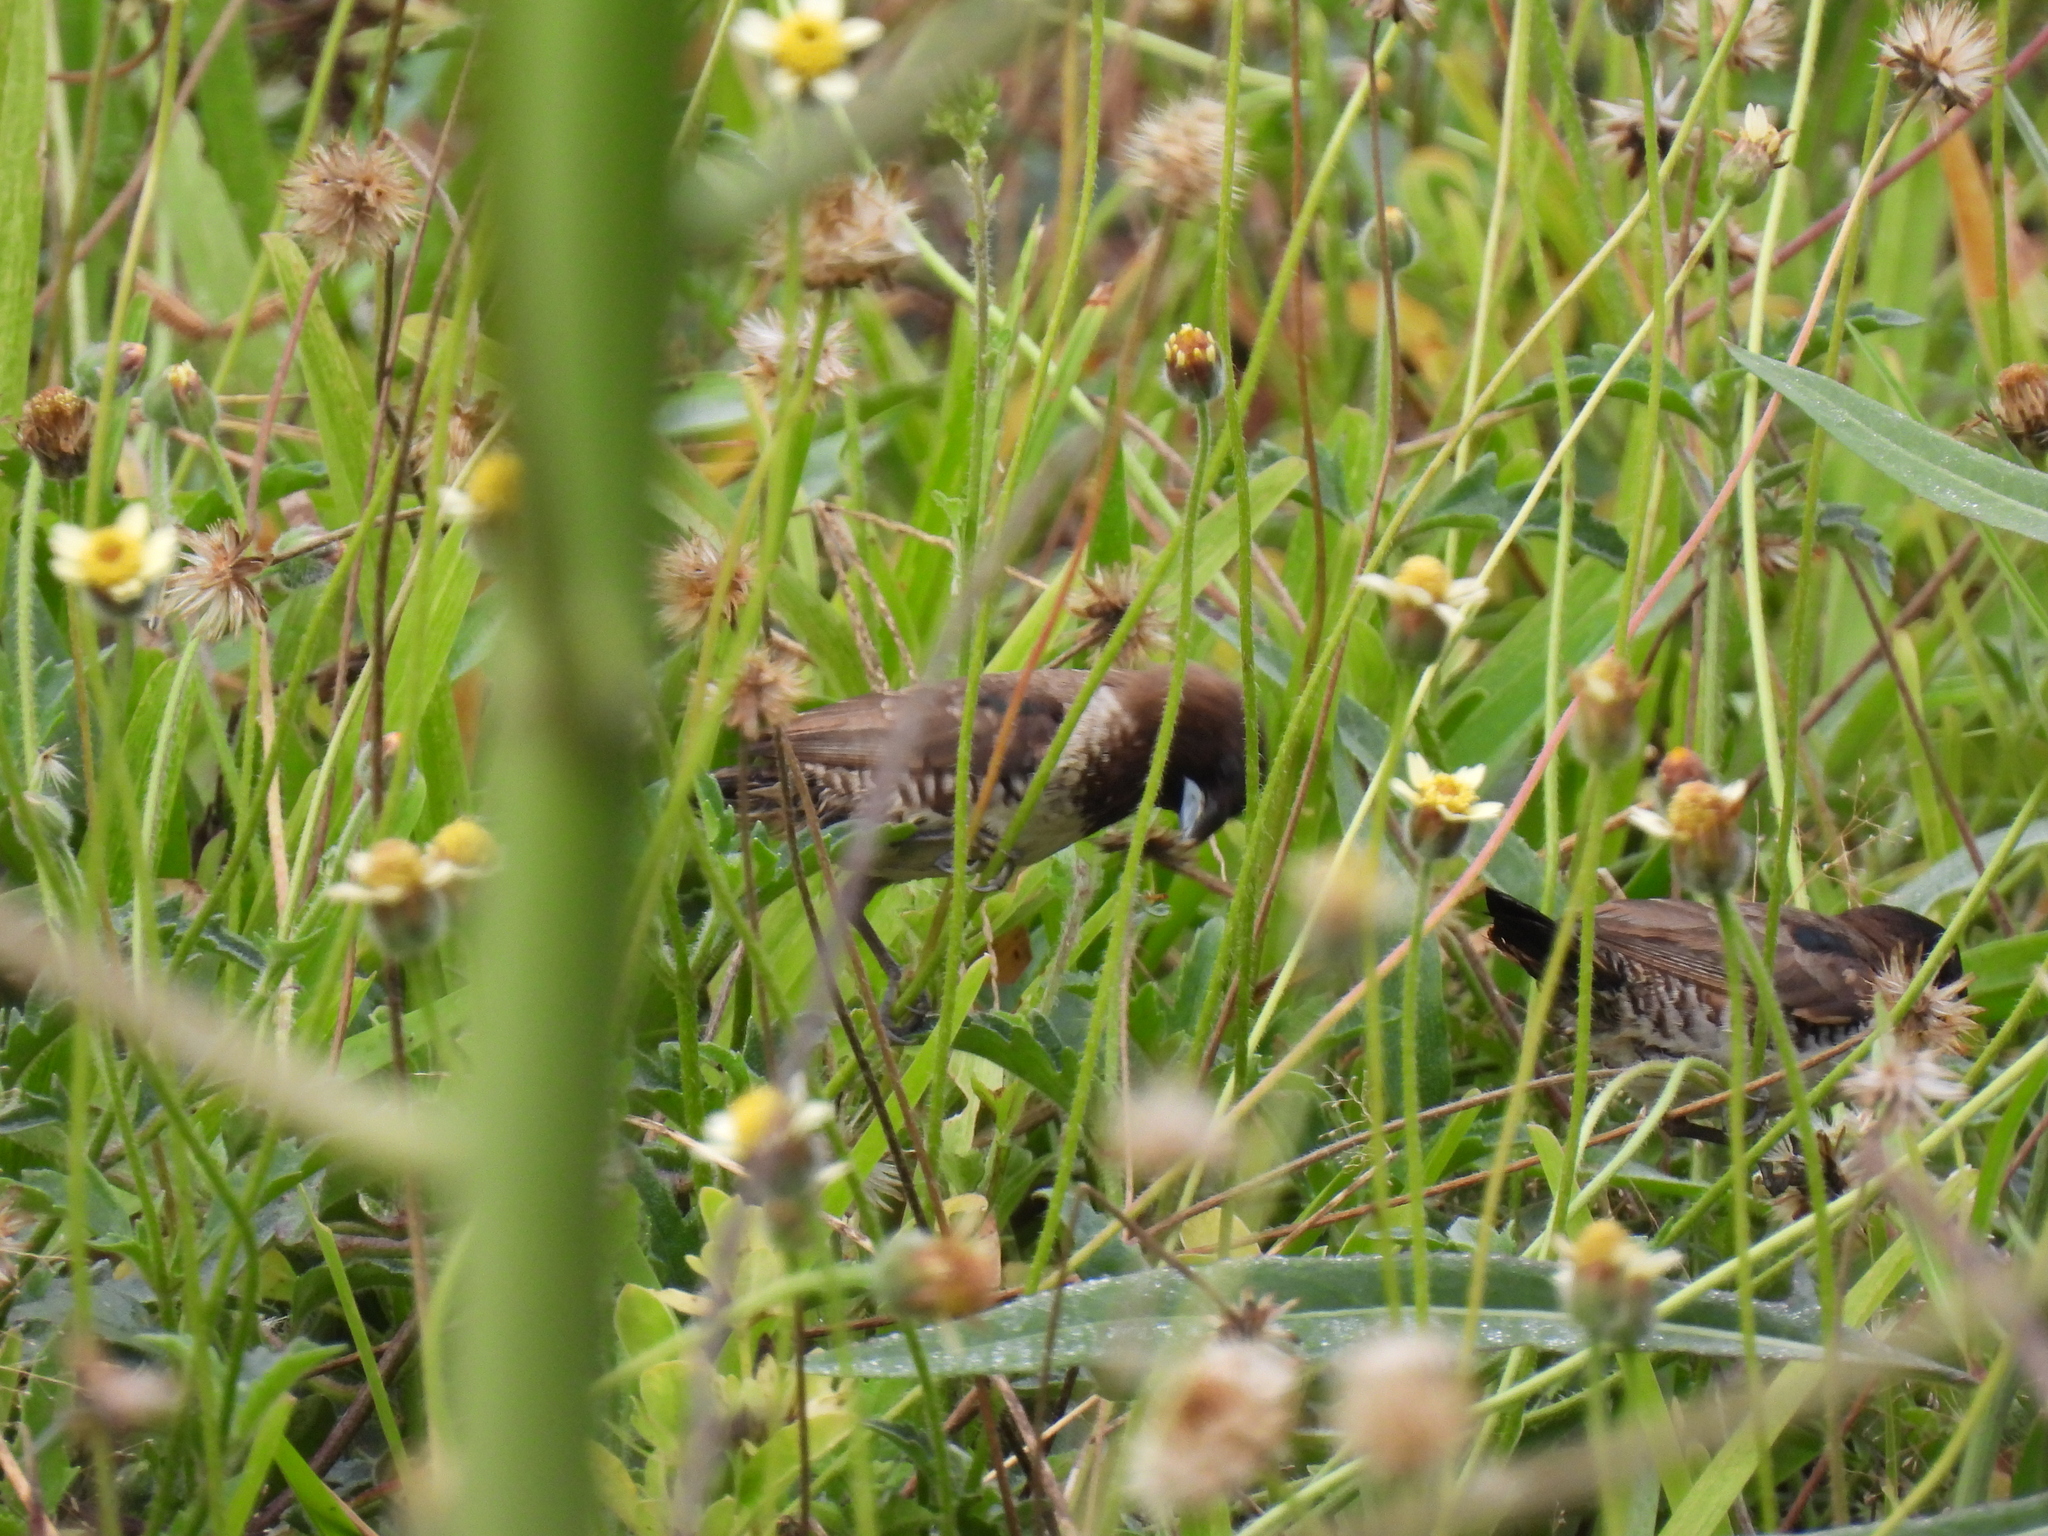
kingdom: Animalia
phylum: Chordata
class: Aves
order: Passeriformes
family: Estrildidae
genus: Lonchura
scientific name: Lonchura cucullata
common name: Bronze mannikin
